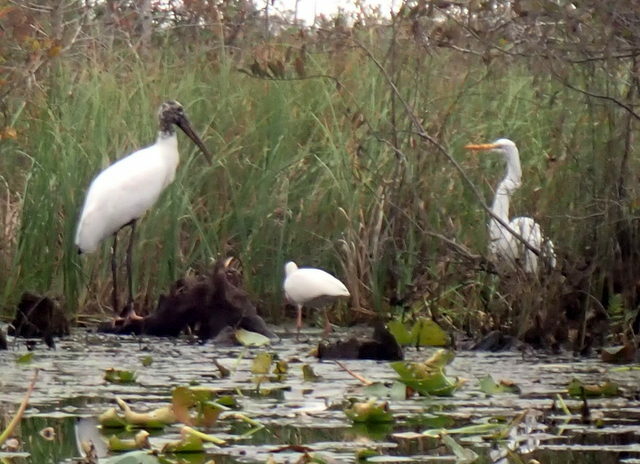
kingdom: Animalia
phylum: Chordata
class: Aves
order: Pelecaniformes
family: Threskiornithidae
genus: Eudocimus
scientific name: Eudocimus albus
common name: White ibis
